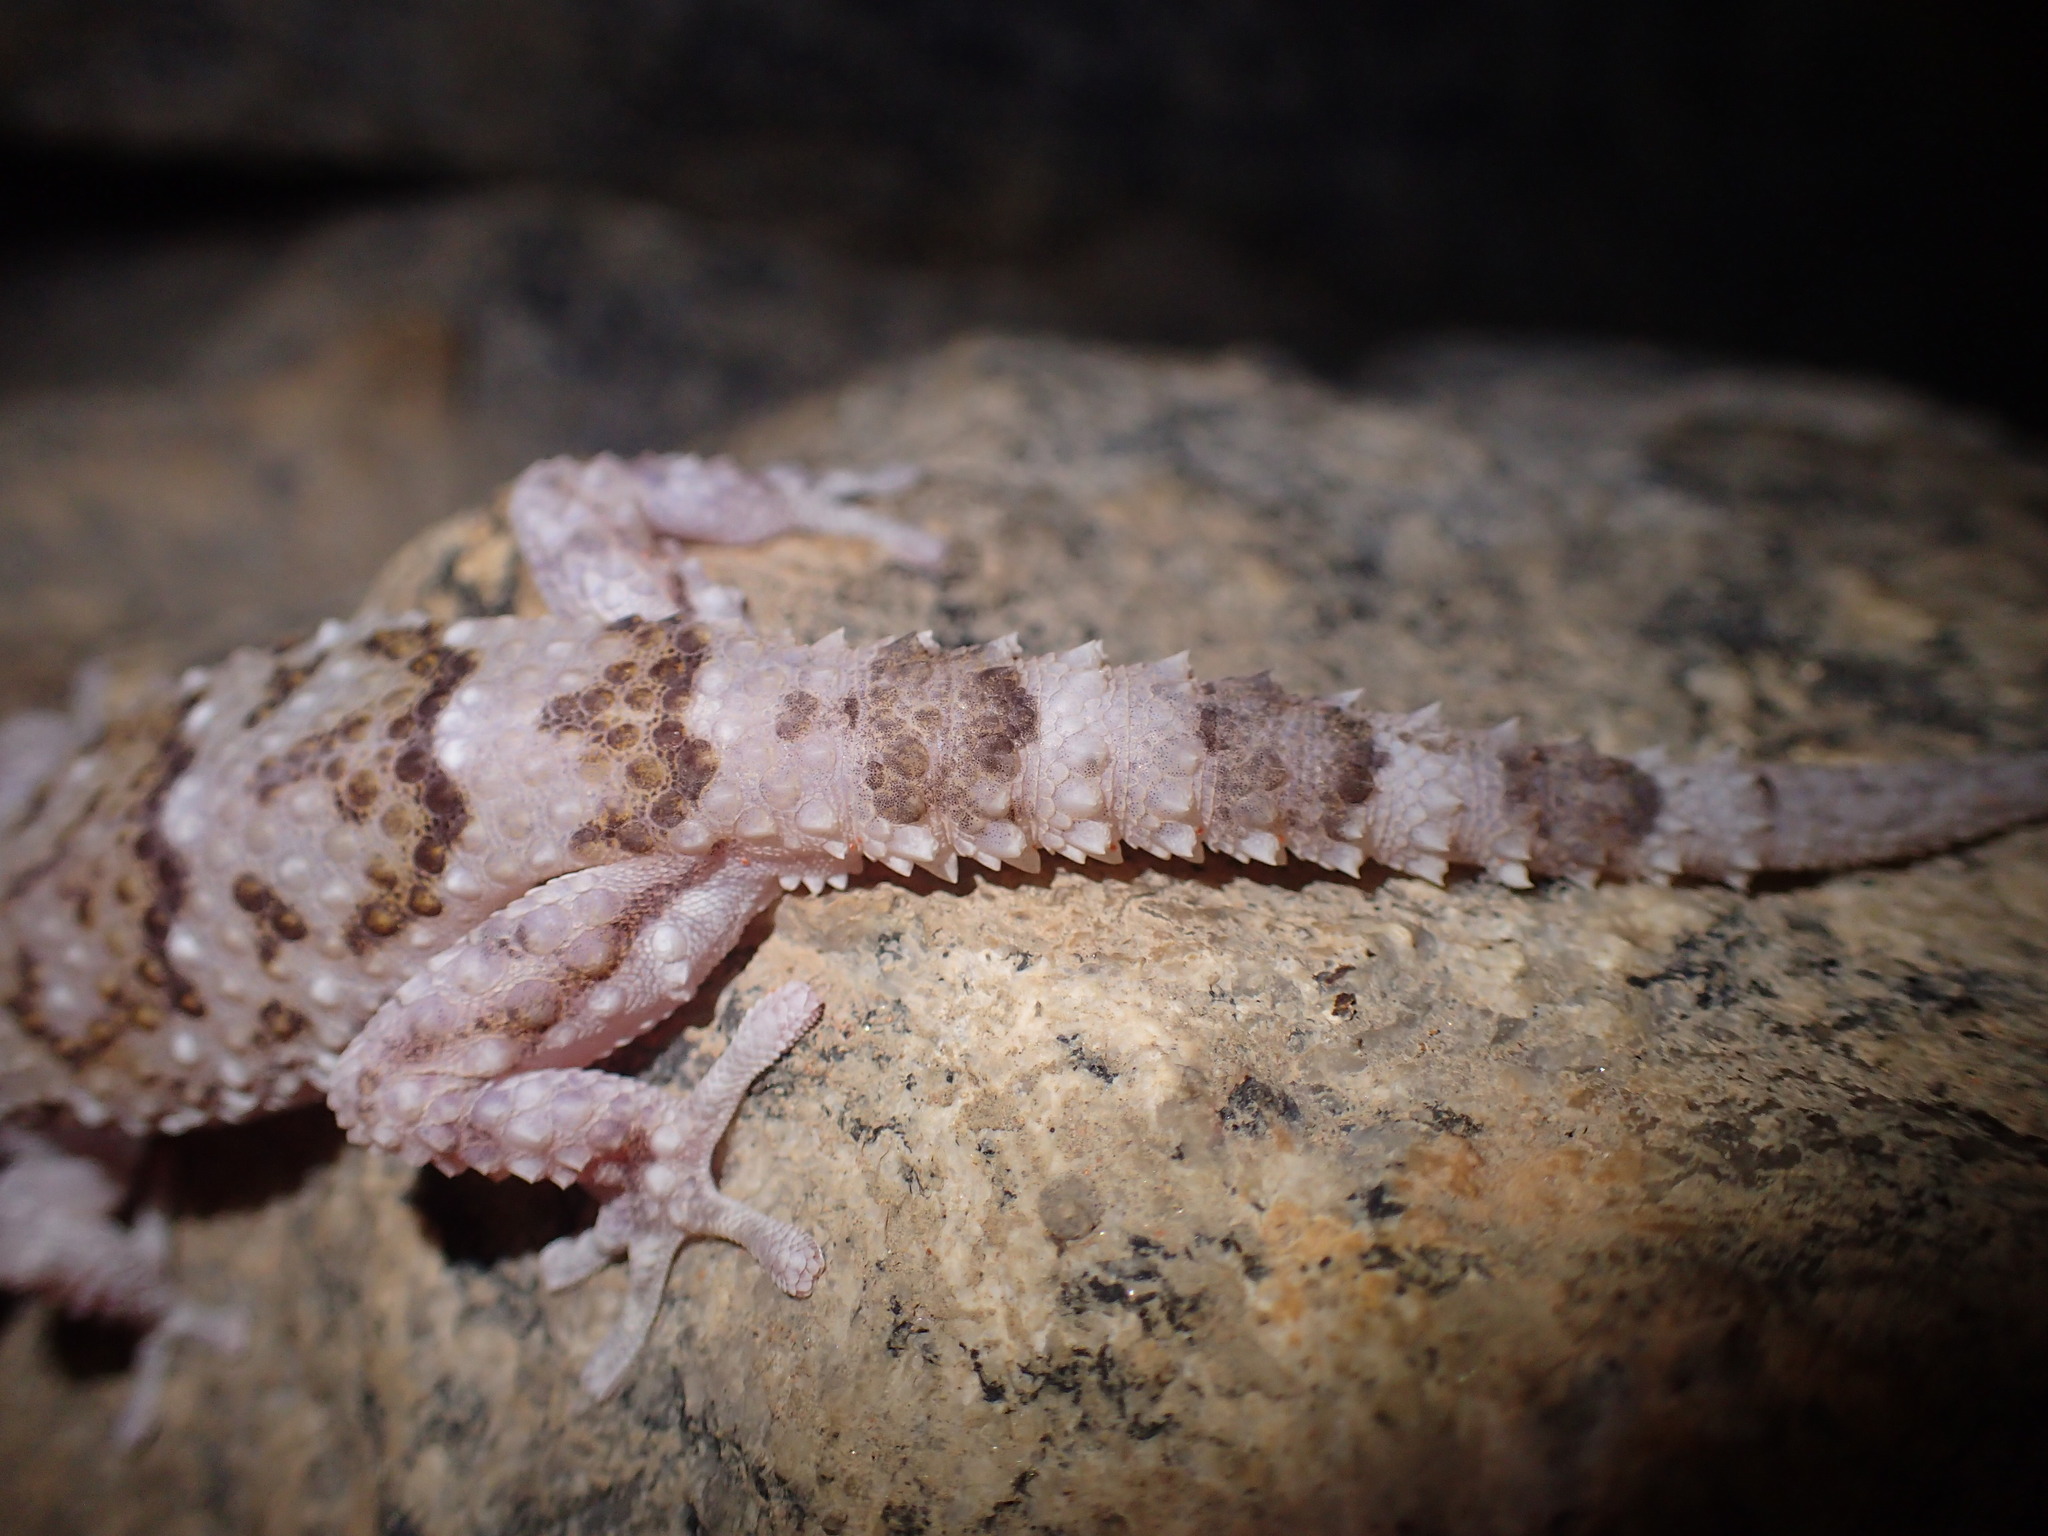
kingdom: Animalia
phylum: Chordata
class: Squamata
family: Gekkonidae
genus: Chondrodactylus
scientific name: Chondrodactylus laevigatus
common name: Fischer's thick-toed gecko
